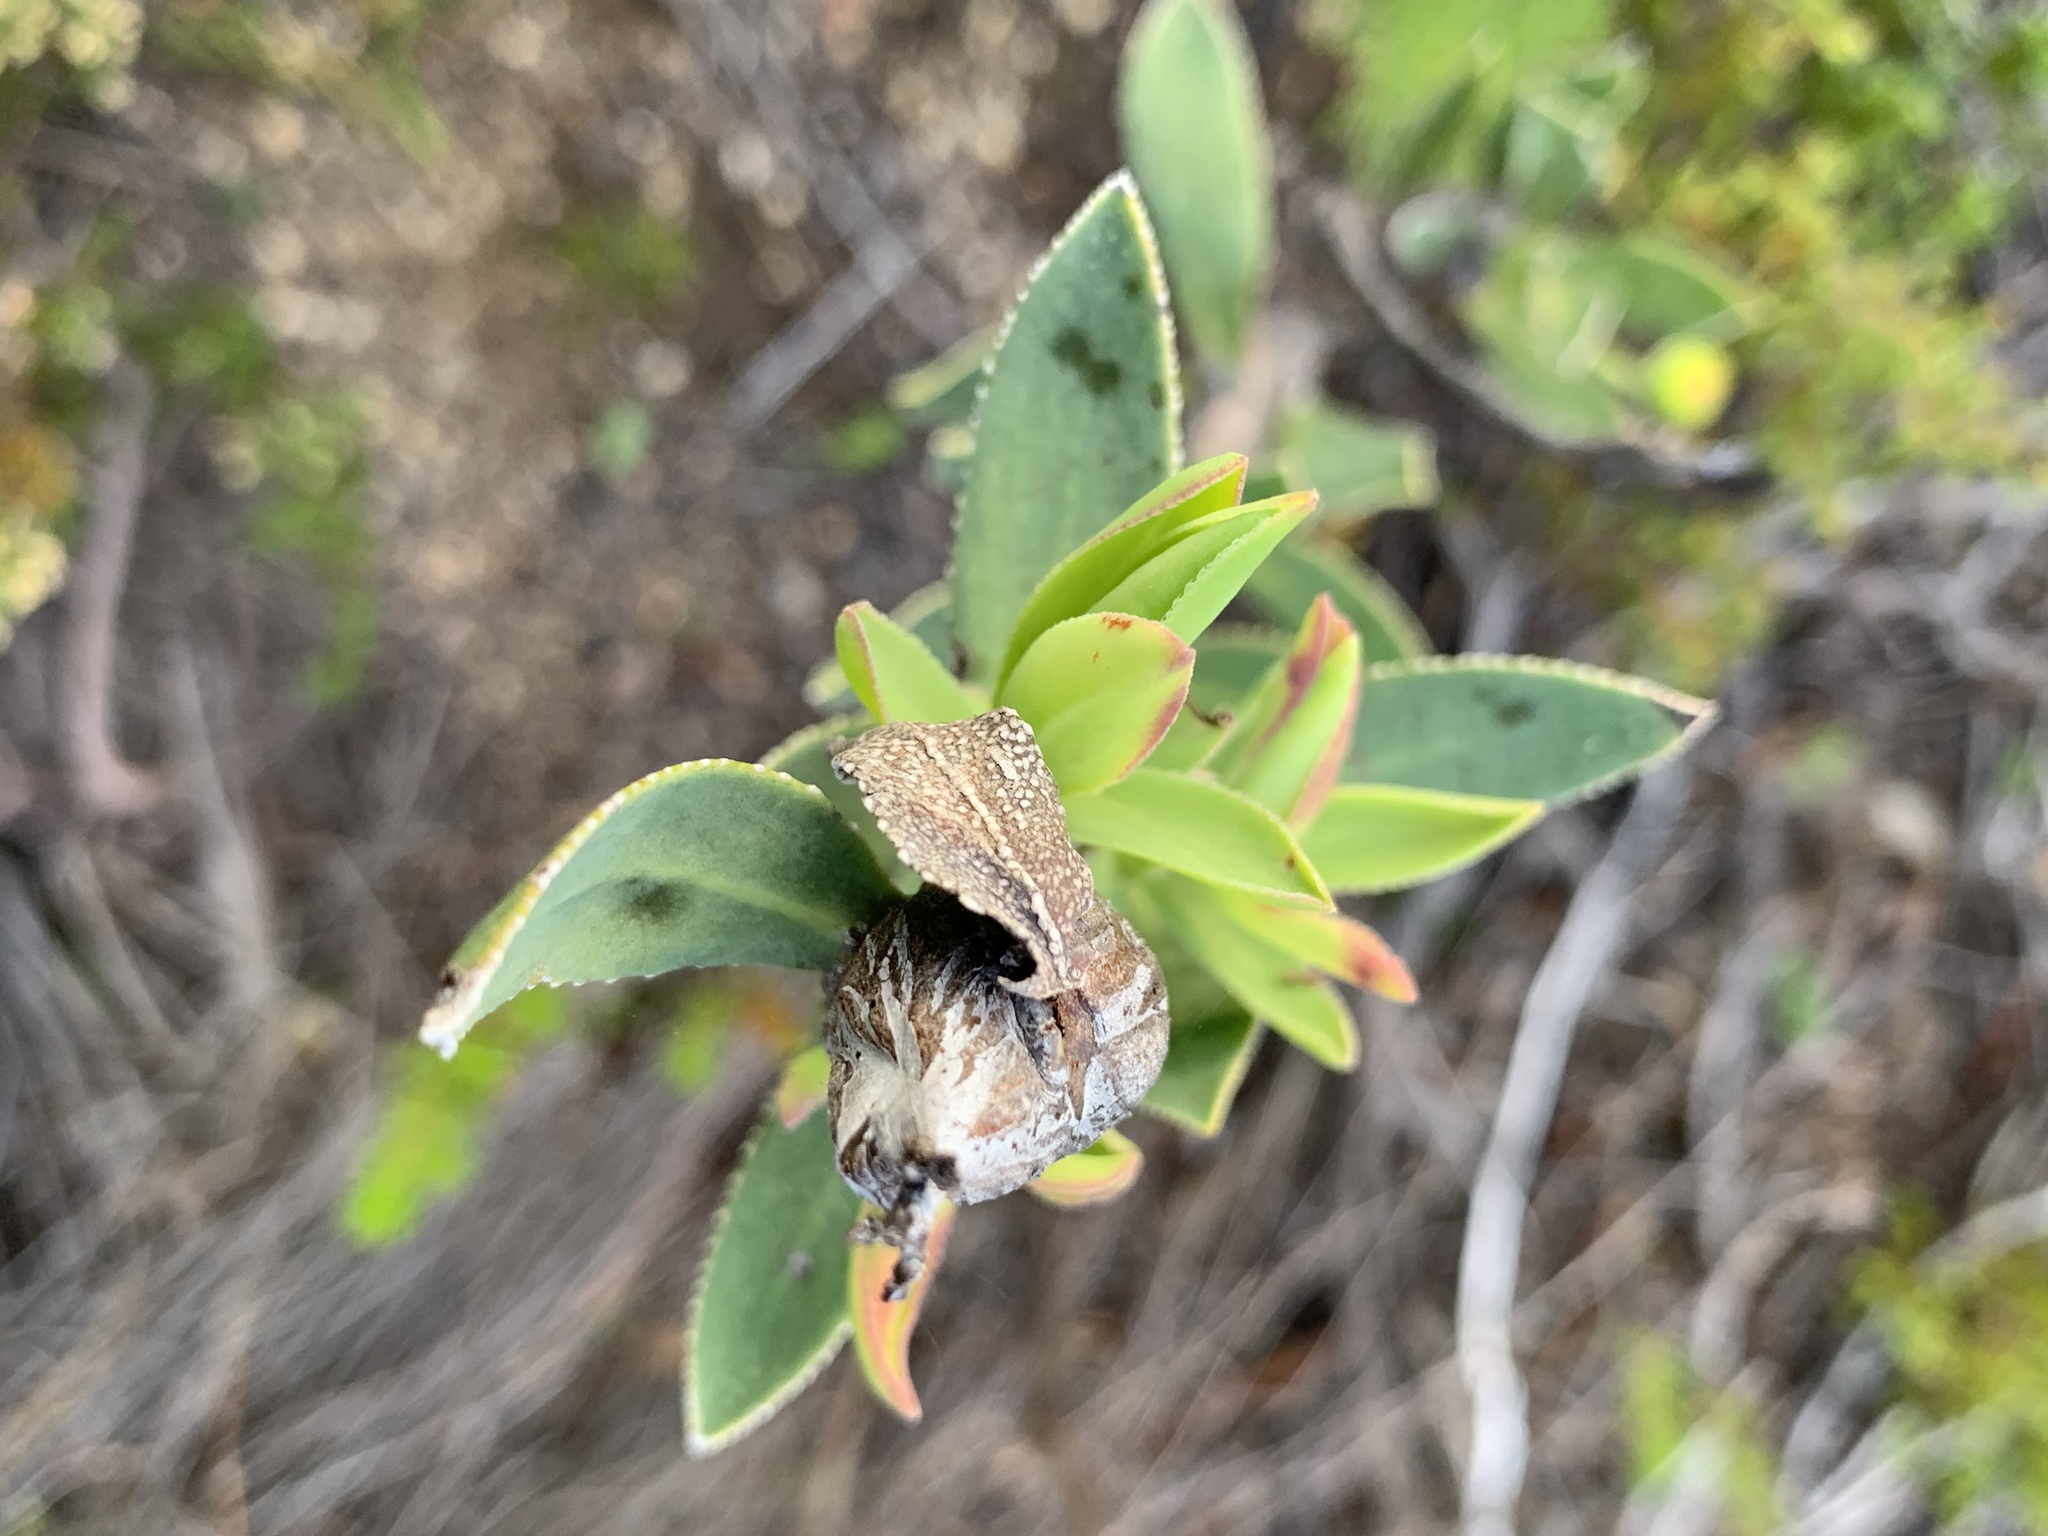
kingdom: Plantae
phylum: Tracheophyta
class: Magnoliopsida
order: Boraginales
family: Boraginaceae
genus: Lobostemon
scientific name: Lobostemon glaucophyllus
